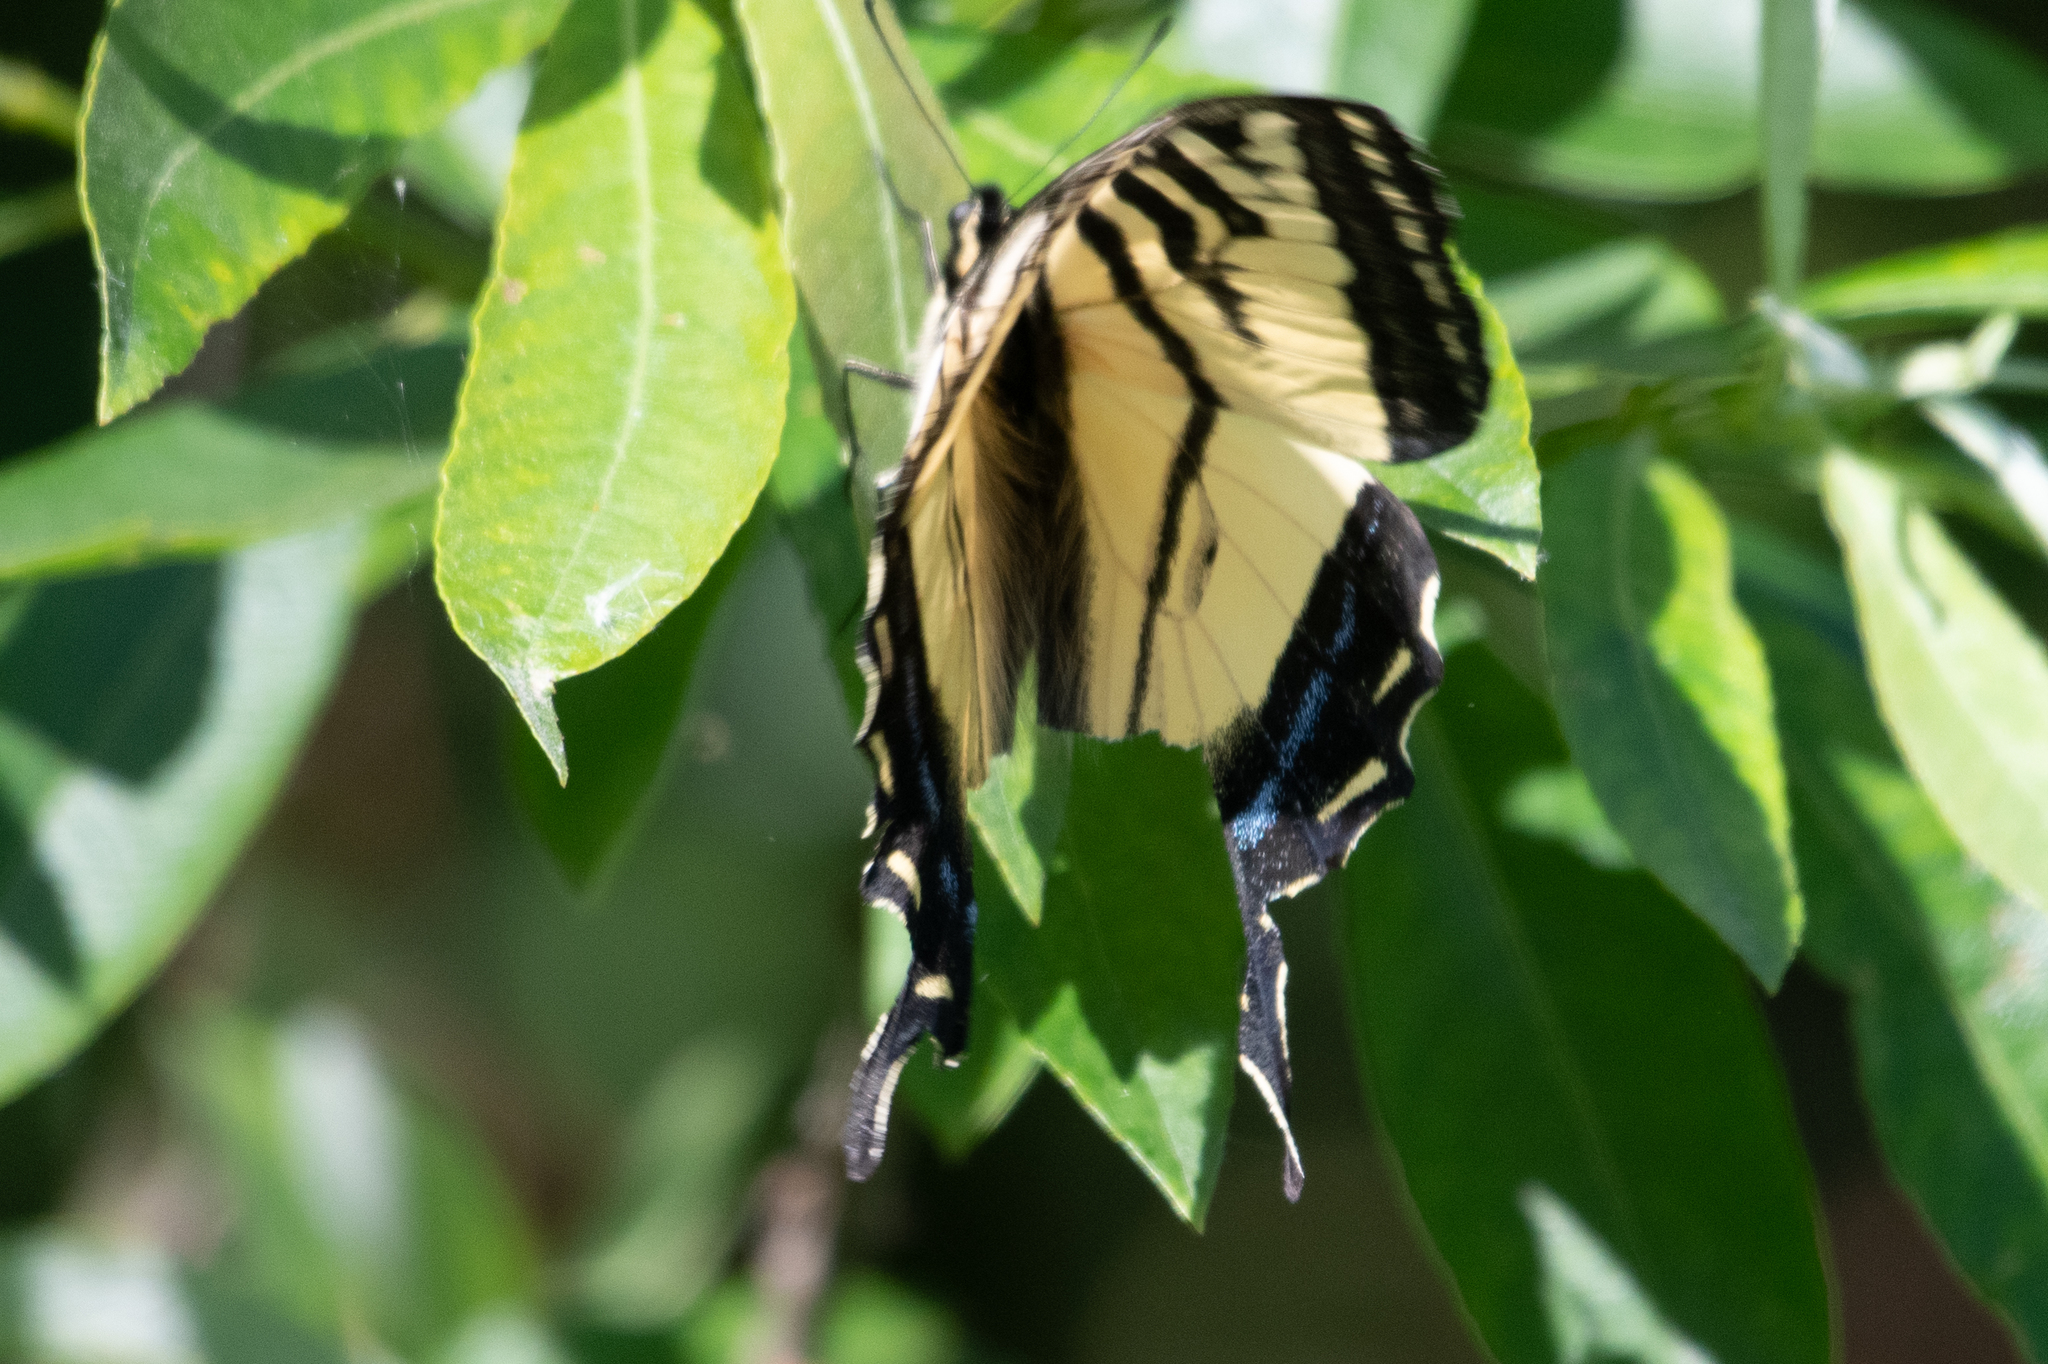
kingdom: Animalia
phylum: Arthropoda
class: Insecta
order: Lepidoptera
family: Papilionidae
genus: Papilio
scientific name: Papilio rutulus
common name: Western tiger swallowtail
